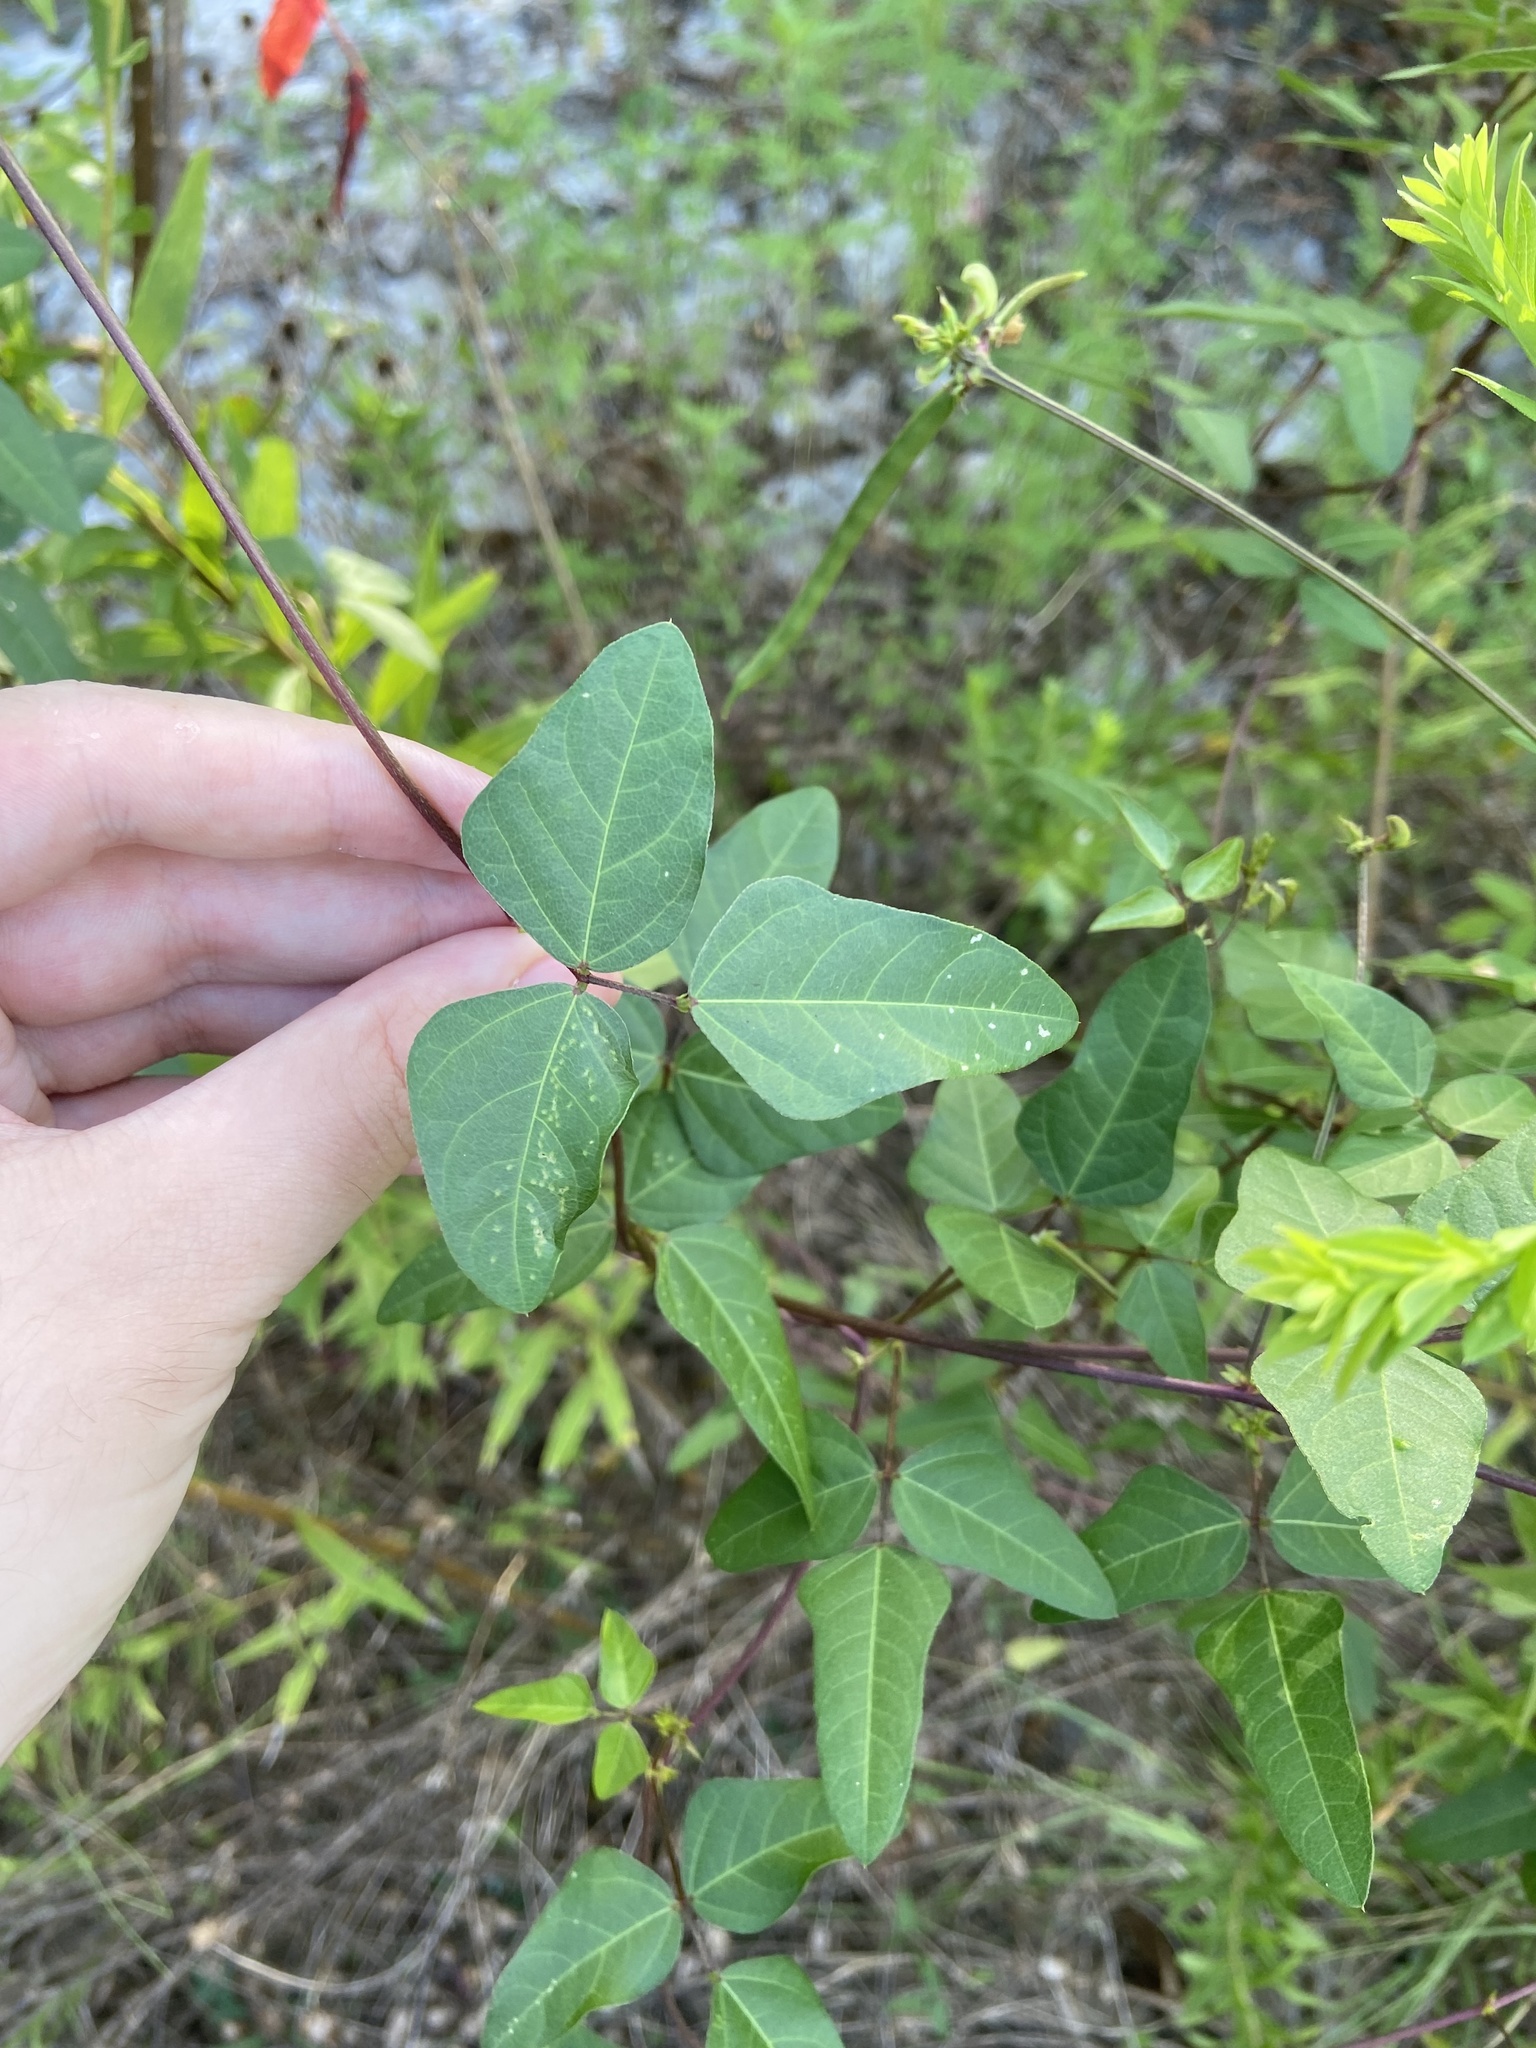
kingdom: Plantae
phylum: Tracheophyta
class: Magnoliopsida
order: Fabales
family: Fabaceae
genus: Strophostyles
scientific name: Strophostyles helvola
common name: Trailing wild bean
